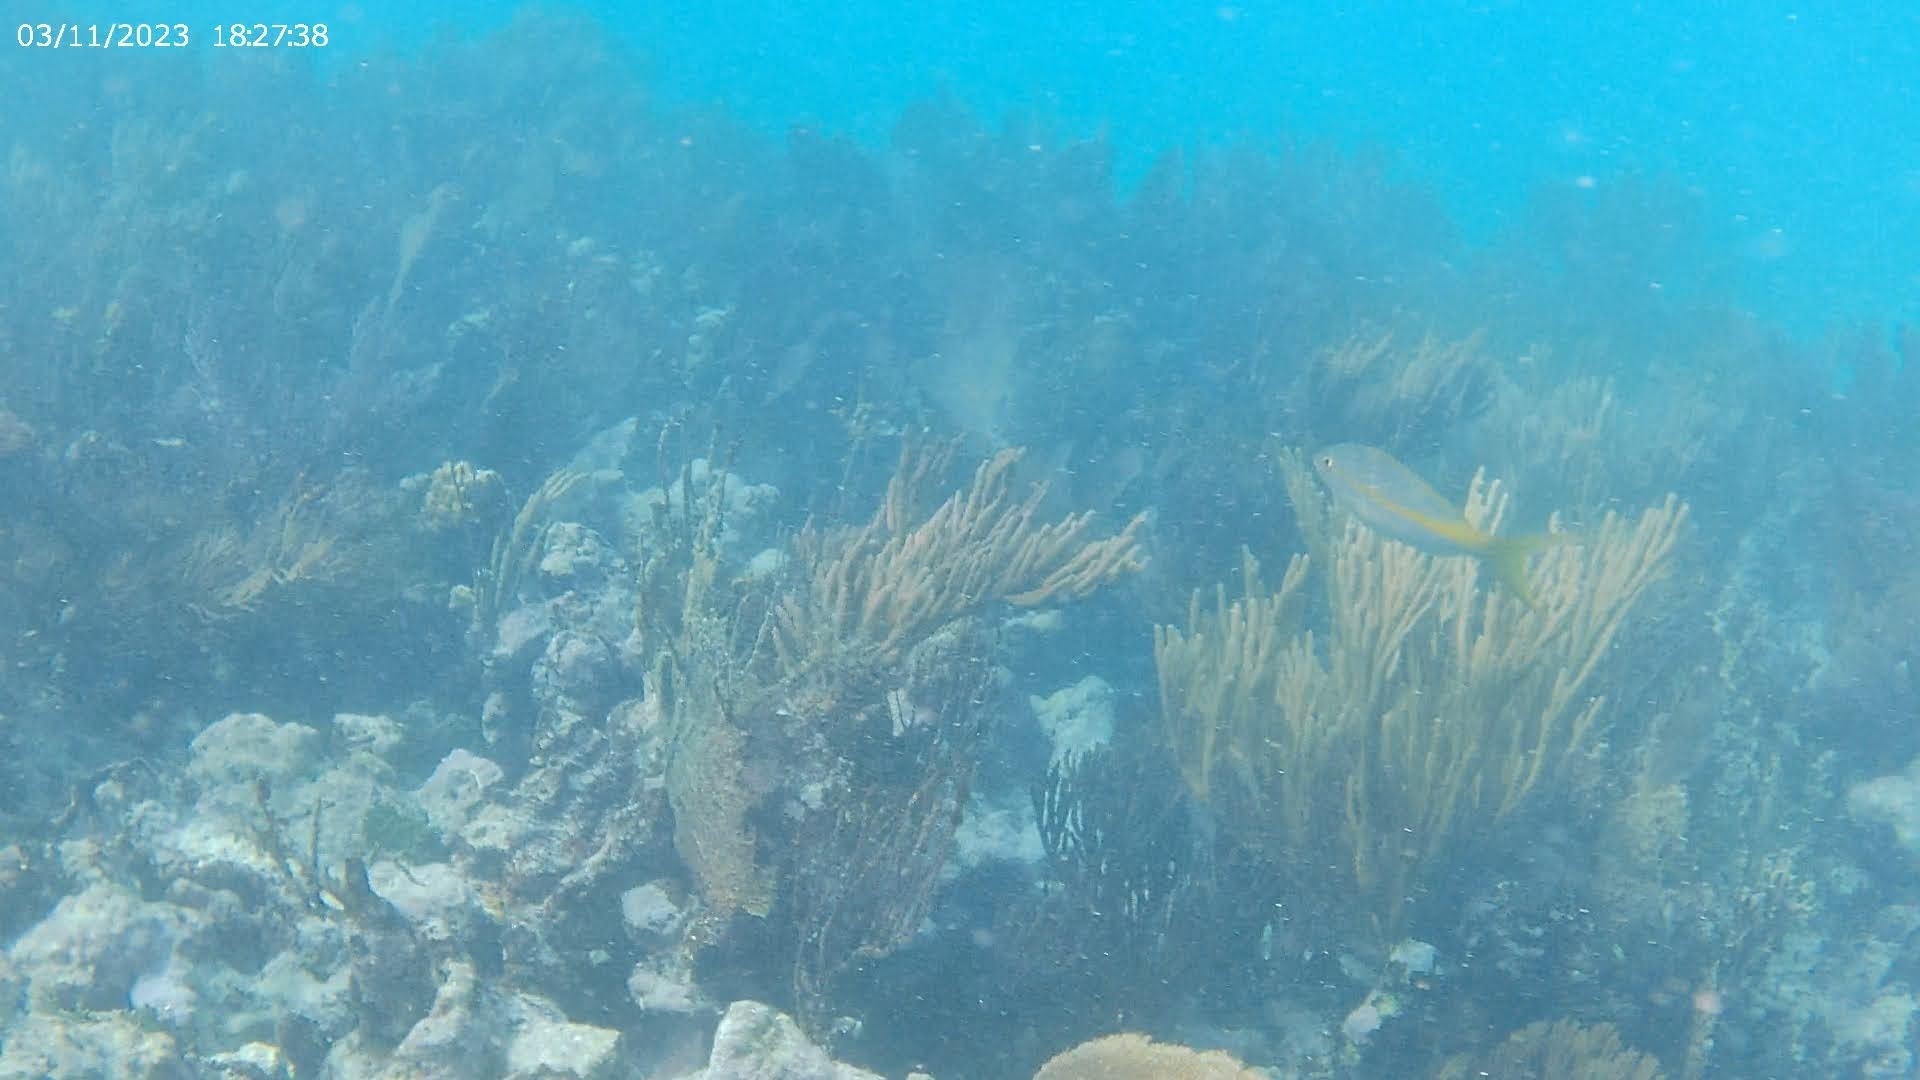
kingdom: Animalia
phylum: Chordata
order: Perciformes
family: Lutjanidae
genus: Ocyurus
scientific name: Ocyurus chrysurus
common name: Yellowtail snapper
